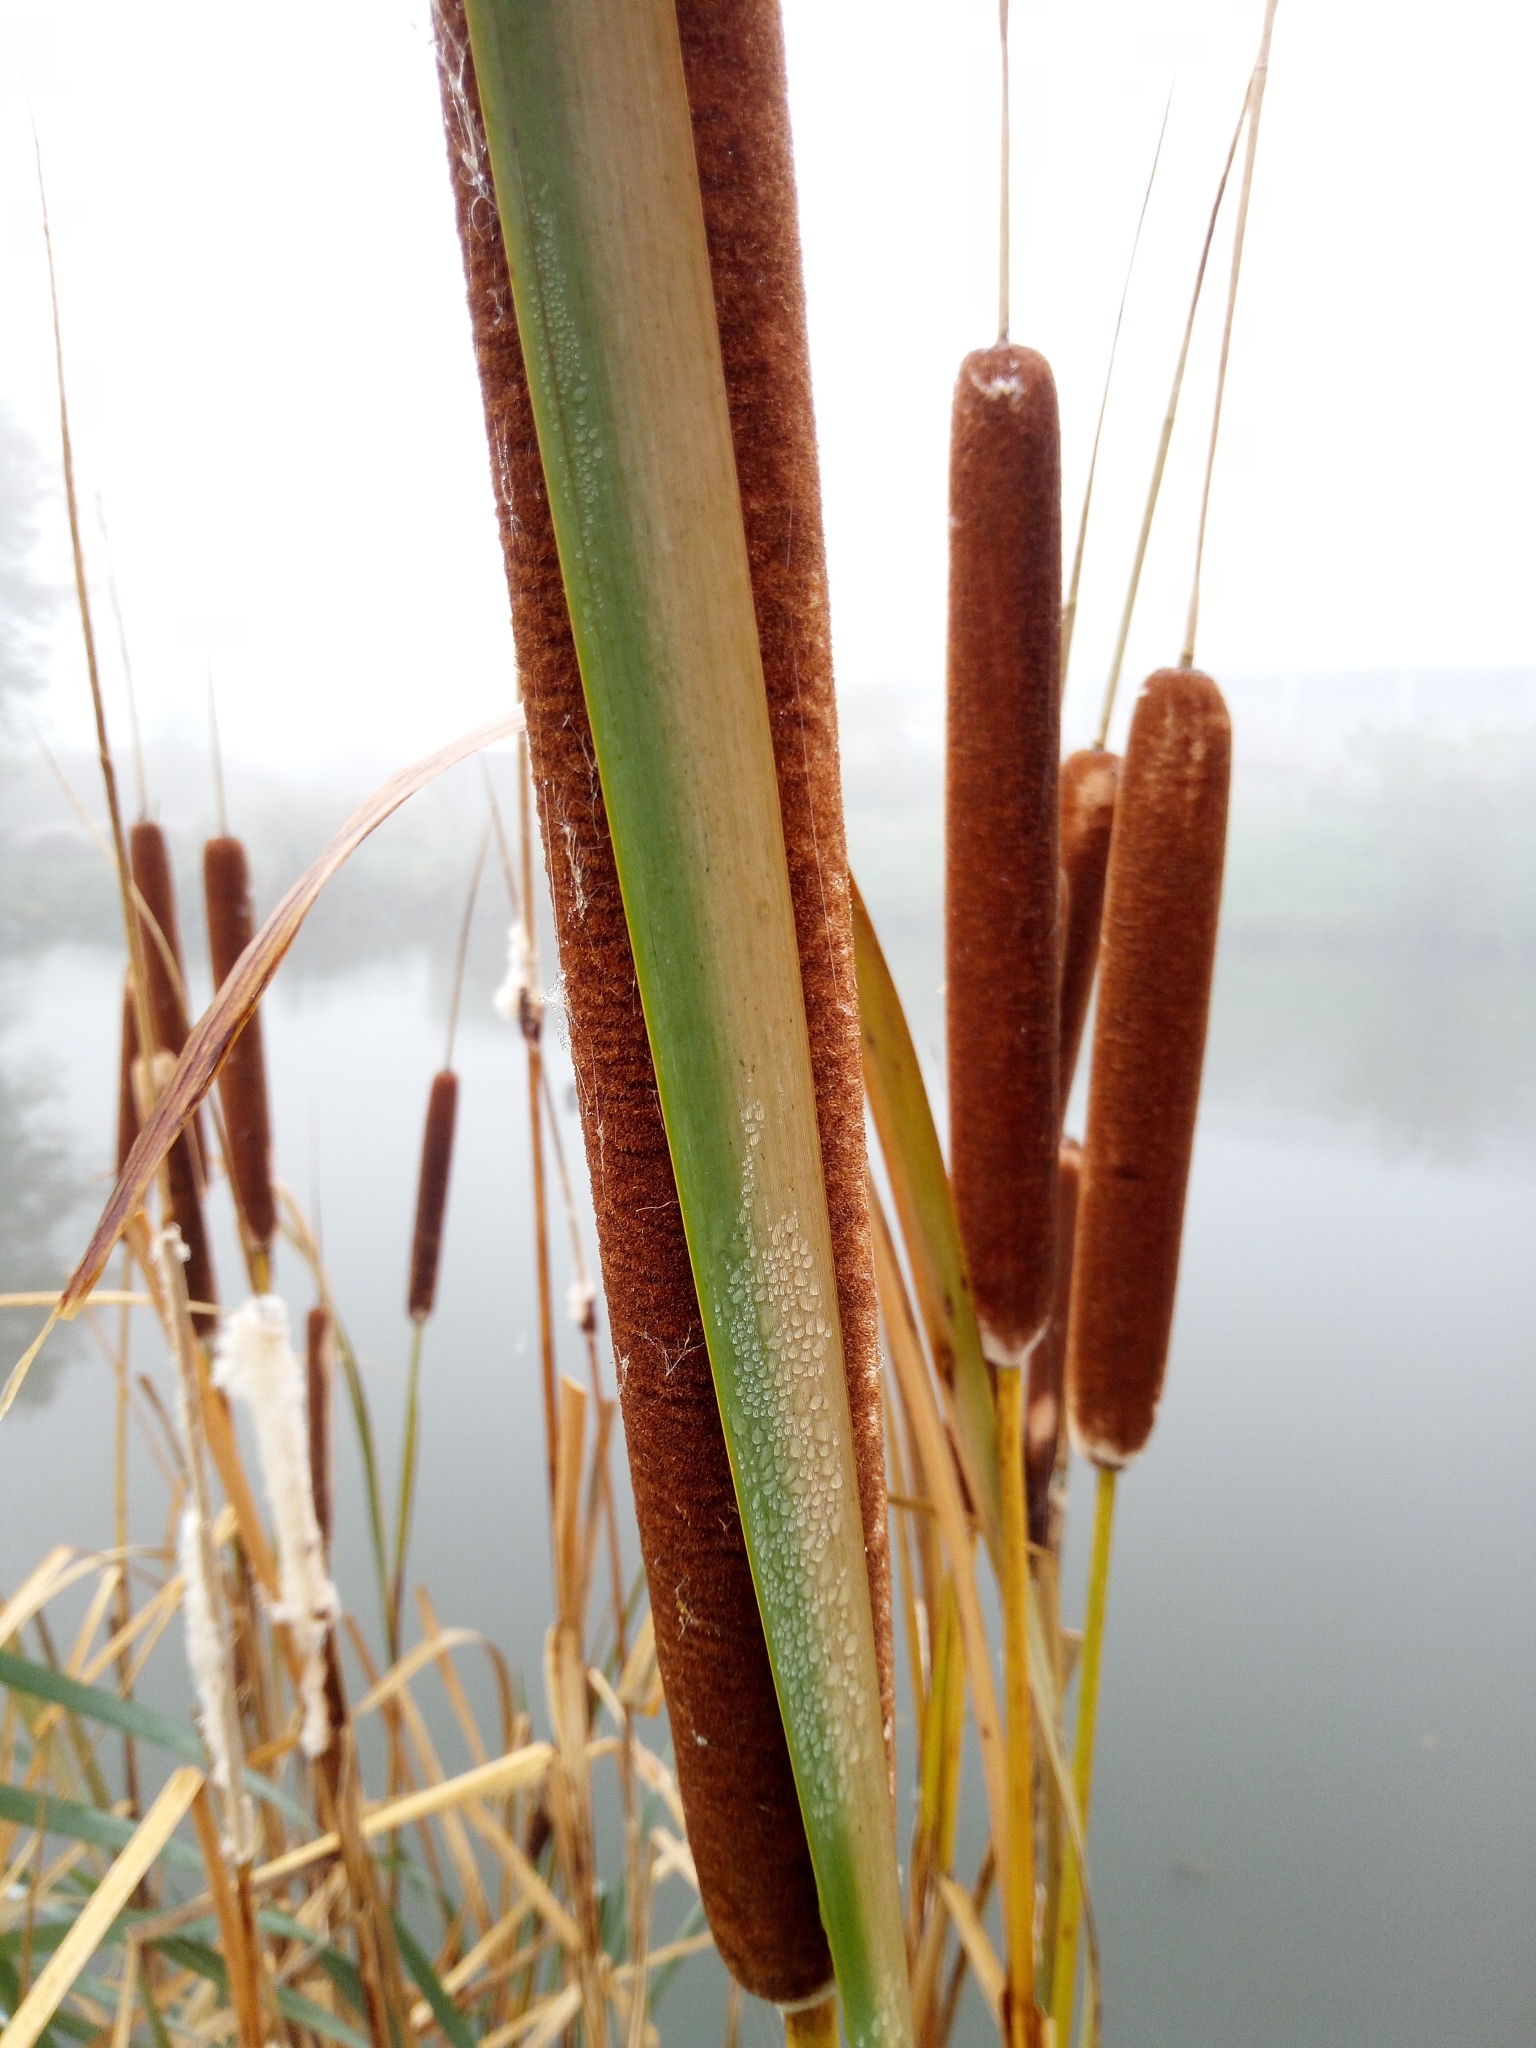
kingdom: Plantae
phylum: Tracheophyta
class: Liliopsida
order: Poales
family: Typhaceae
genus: Typha
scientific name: Typha latifolia
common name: Broadleaf cattail
